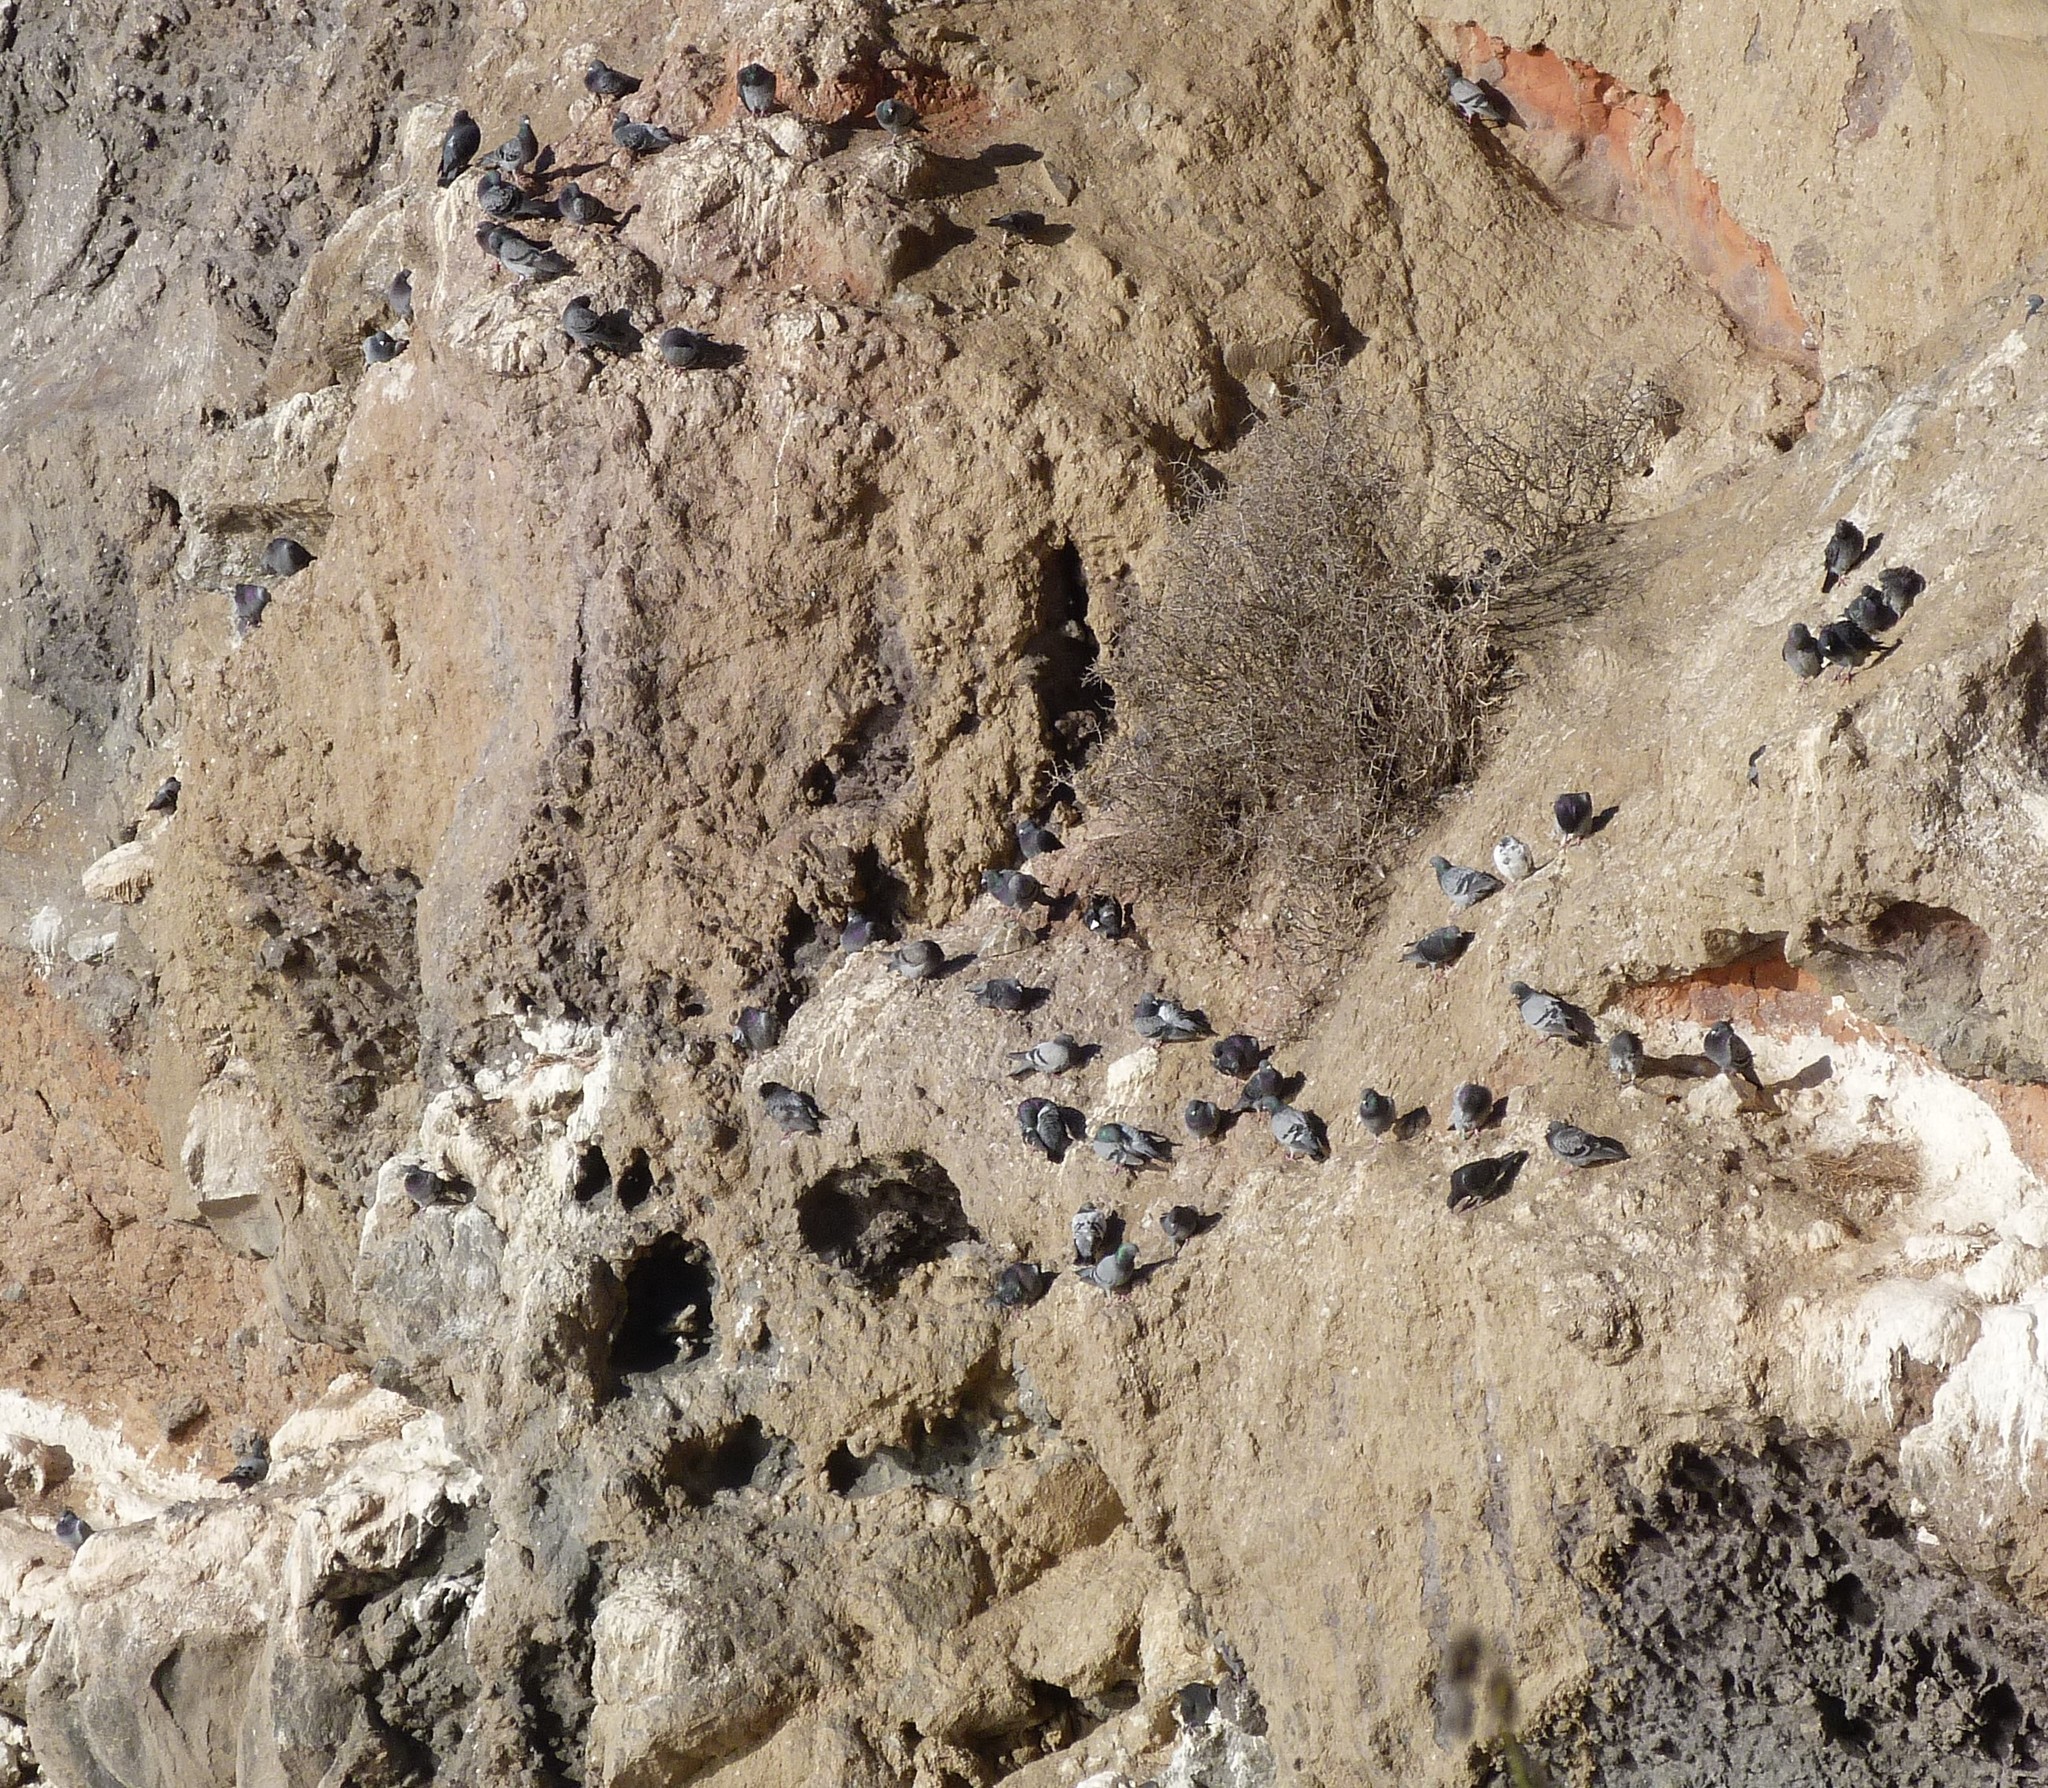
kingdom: Animalia
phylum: Chordata
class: Aves
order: Columbiformes
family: Columbidae
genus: Columba
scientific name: Columba livia
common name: Rock pigeon
